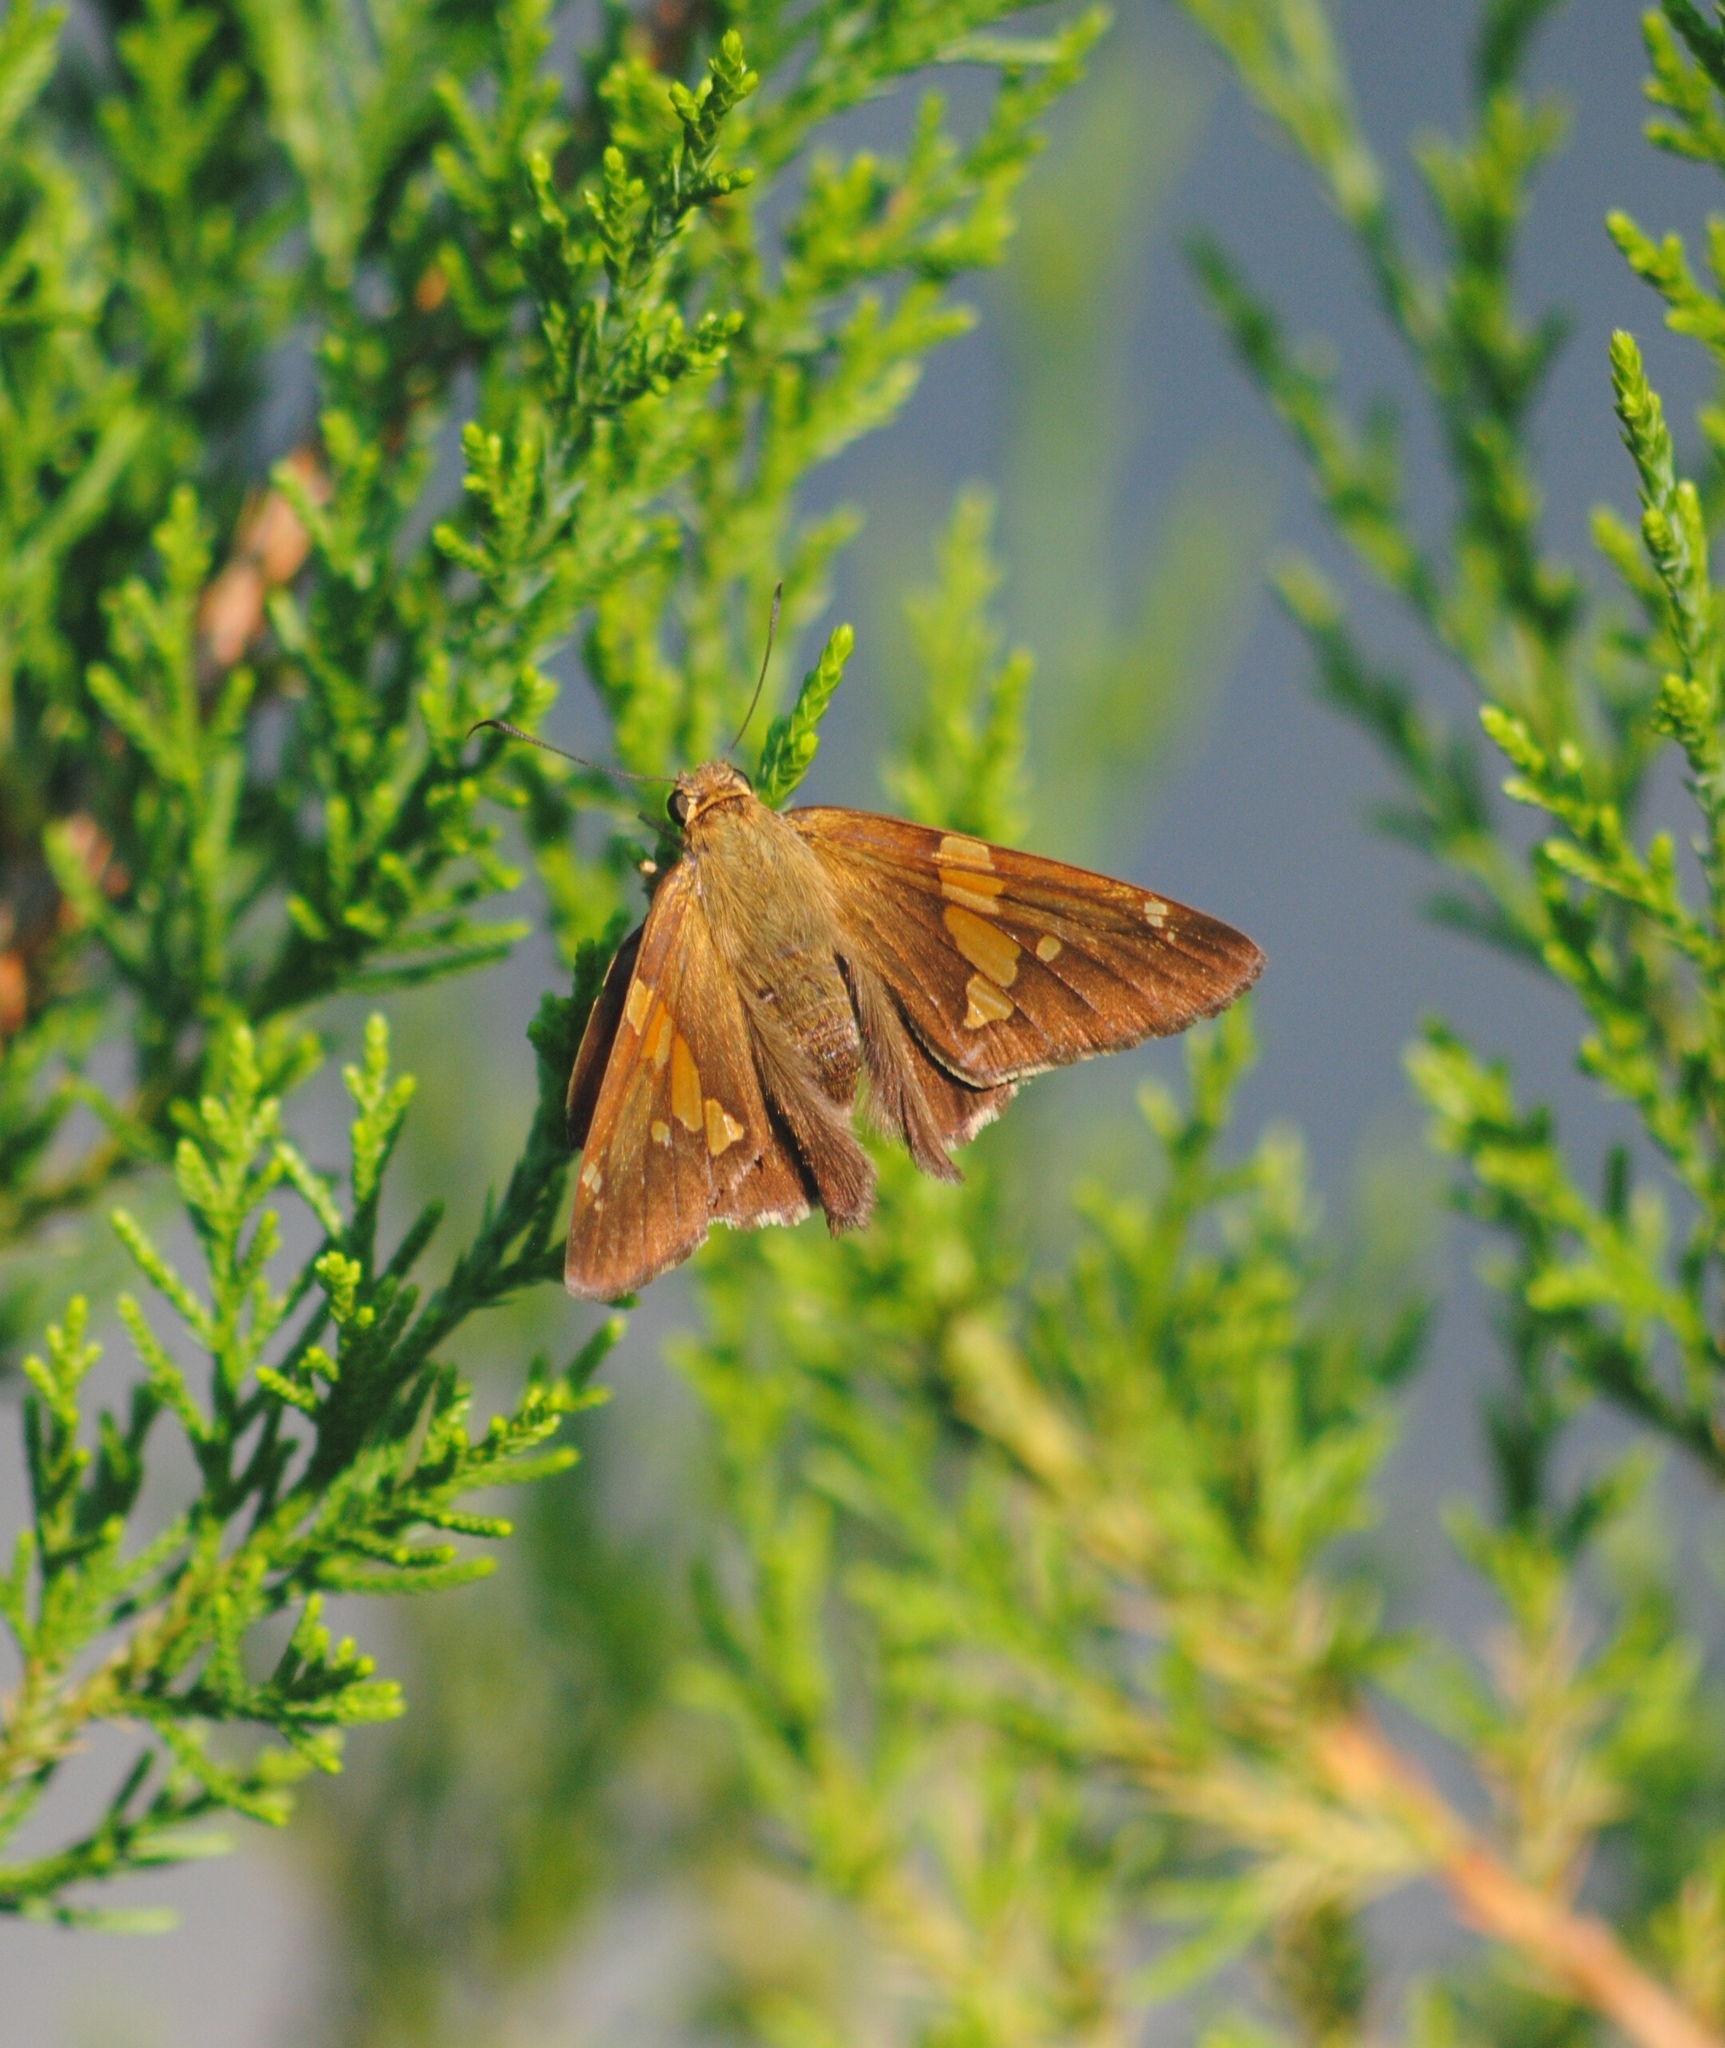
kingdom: Animalia
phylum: Arthropoda
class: Insecta
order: Lepidoptera
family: Hesperiidae
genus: Epargyreus
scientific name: Epargyreus clarus
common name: Silver-spotted skipper
